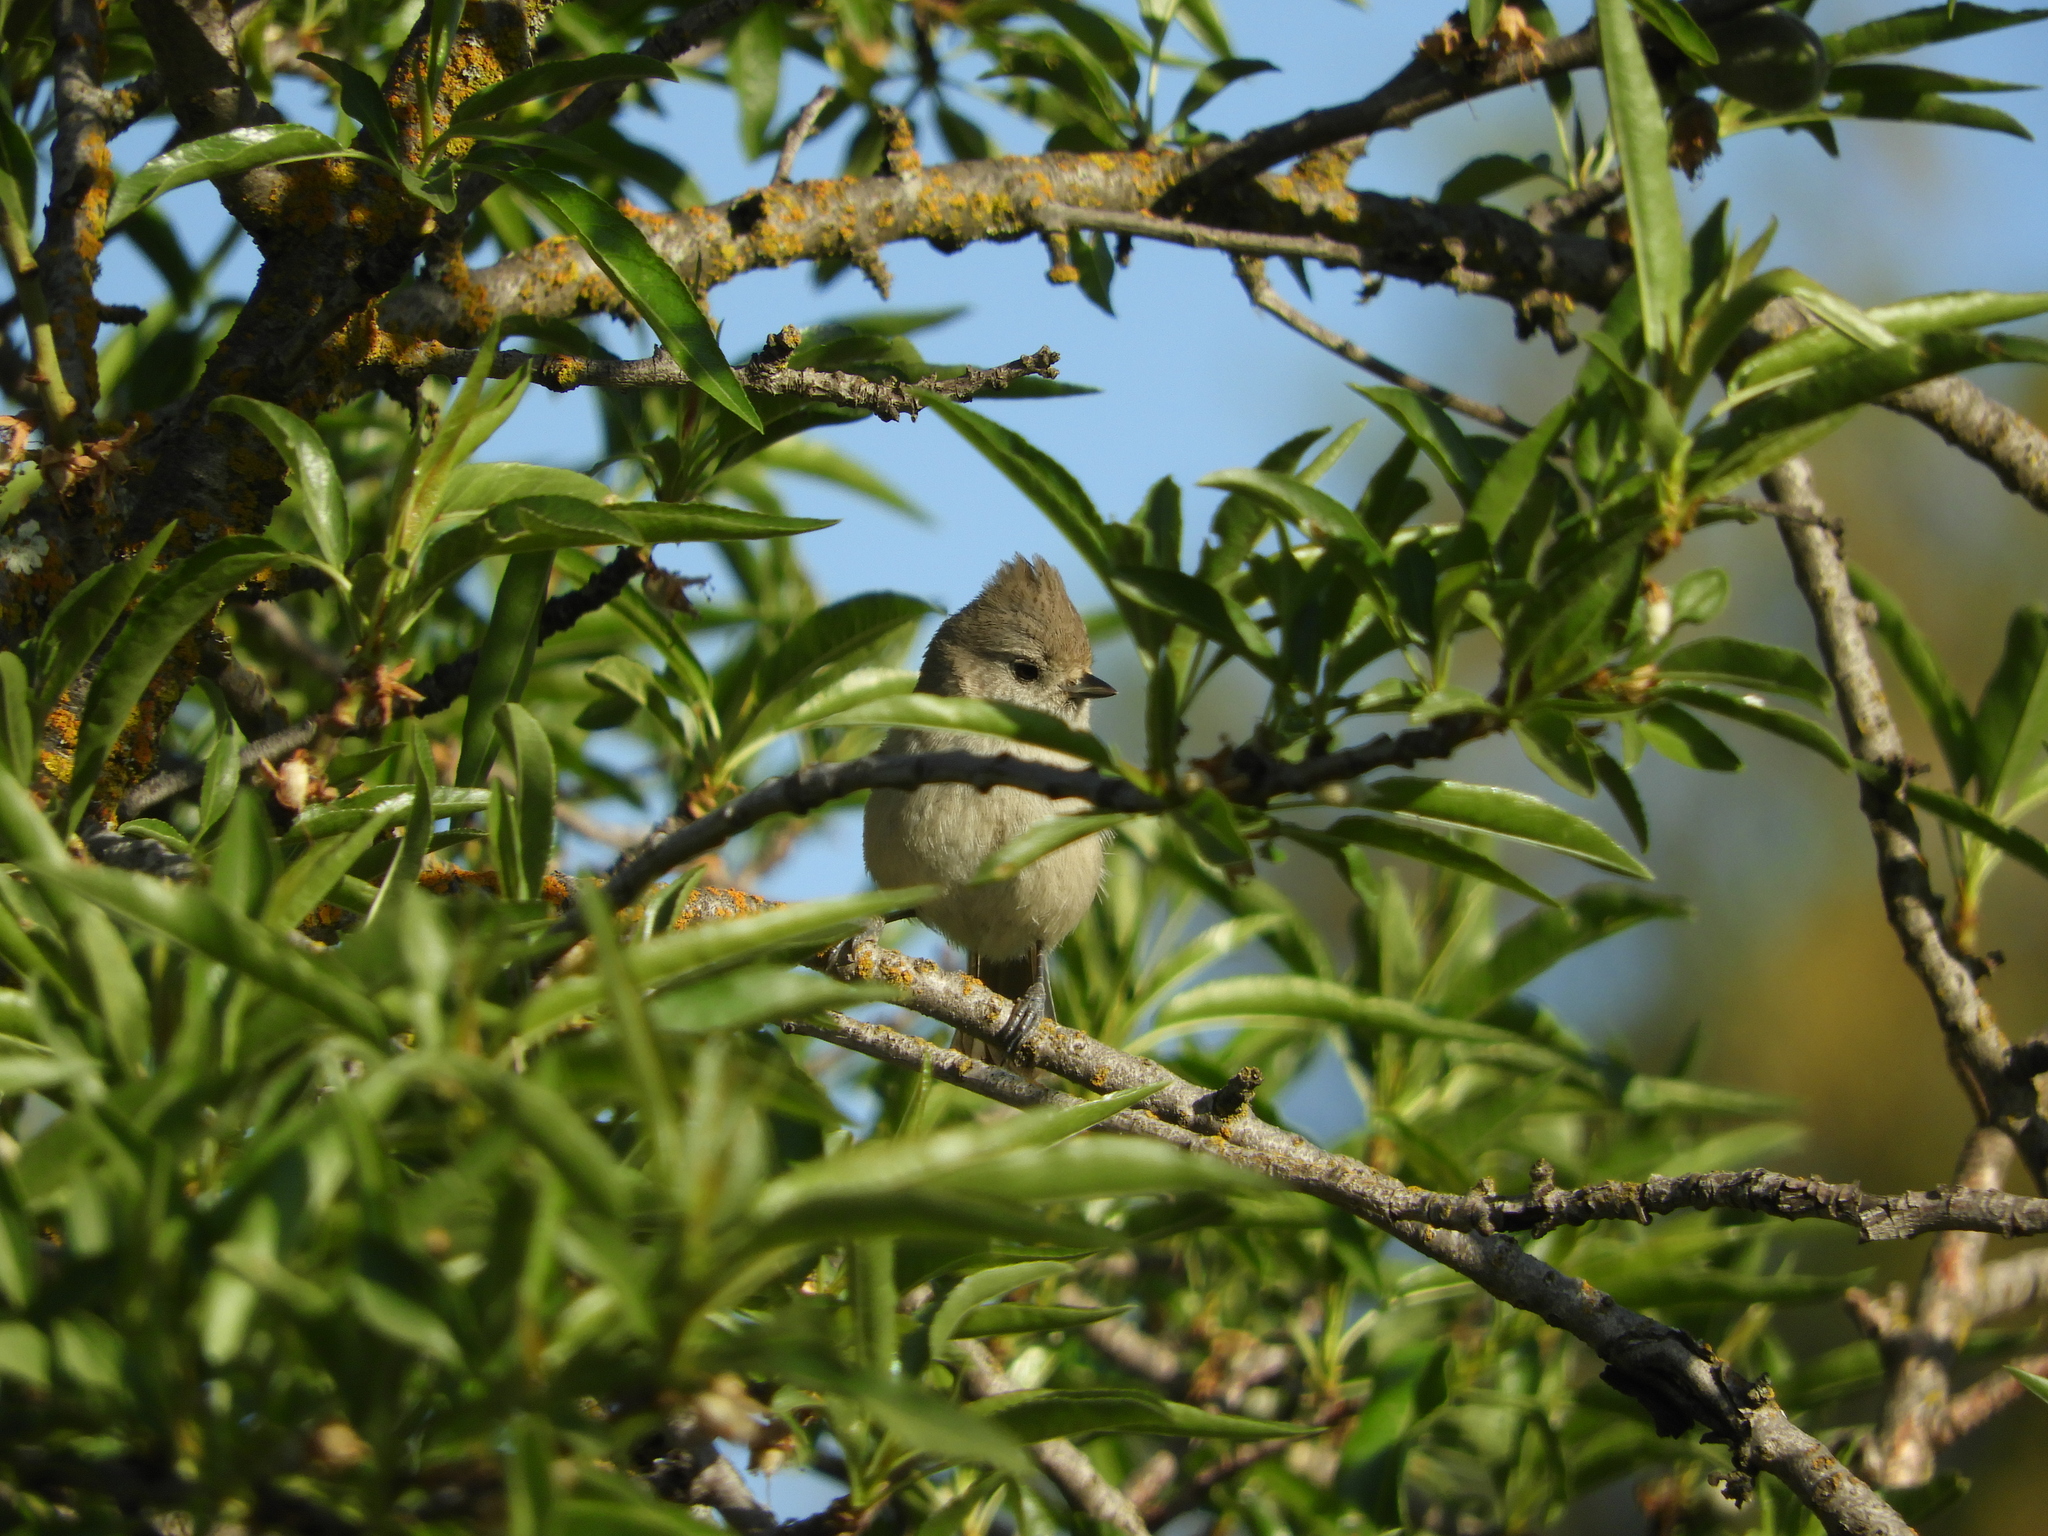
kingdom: Animalia
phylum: Chordata
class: Aves
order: Passeriformes
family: Paridae
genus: Baeolophus
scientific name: Baeolophus inornatus
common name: Oak titmouse
